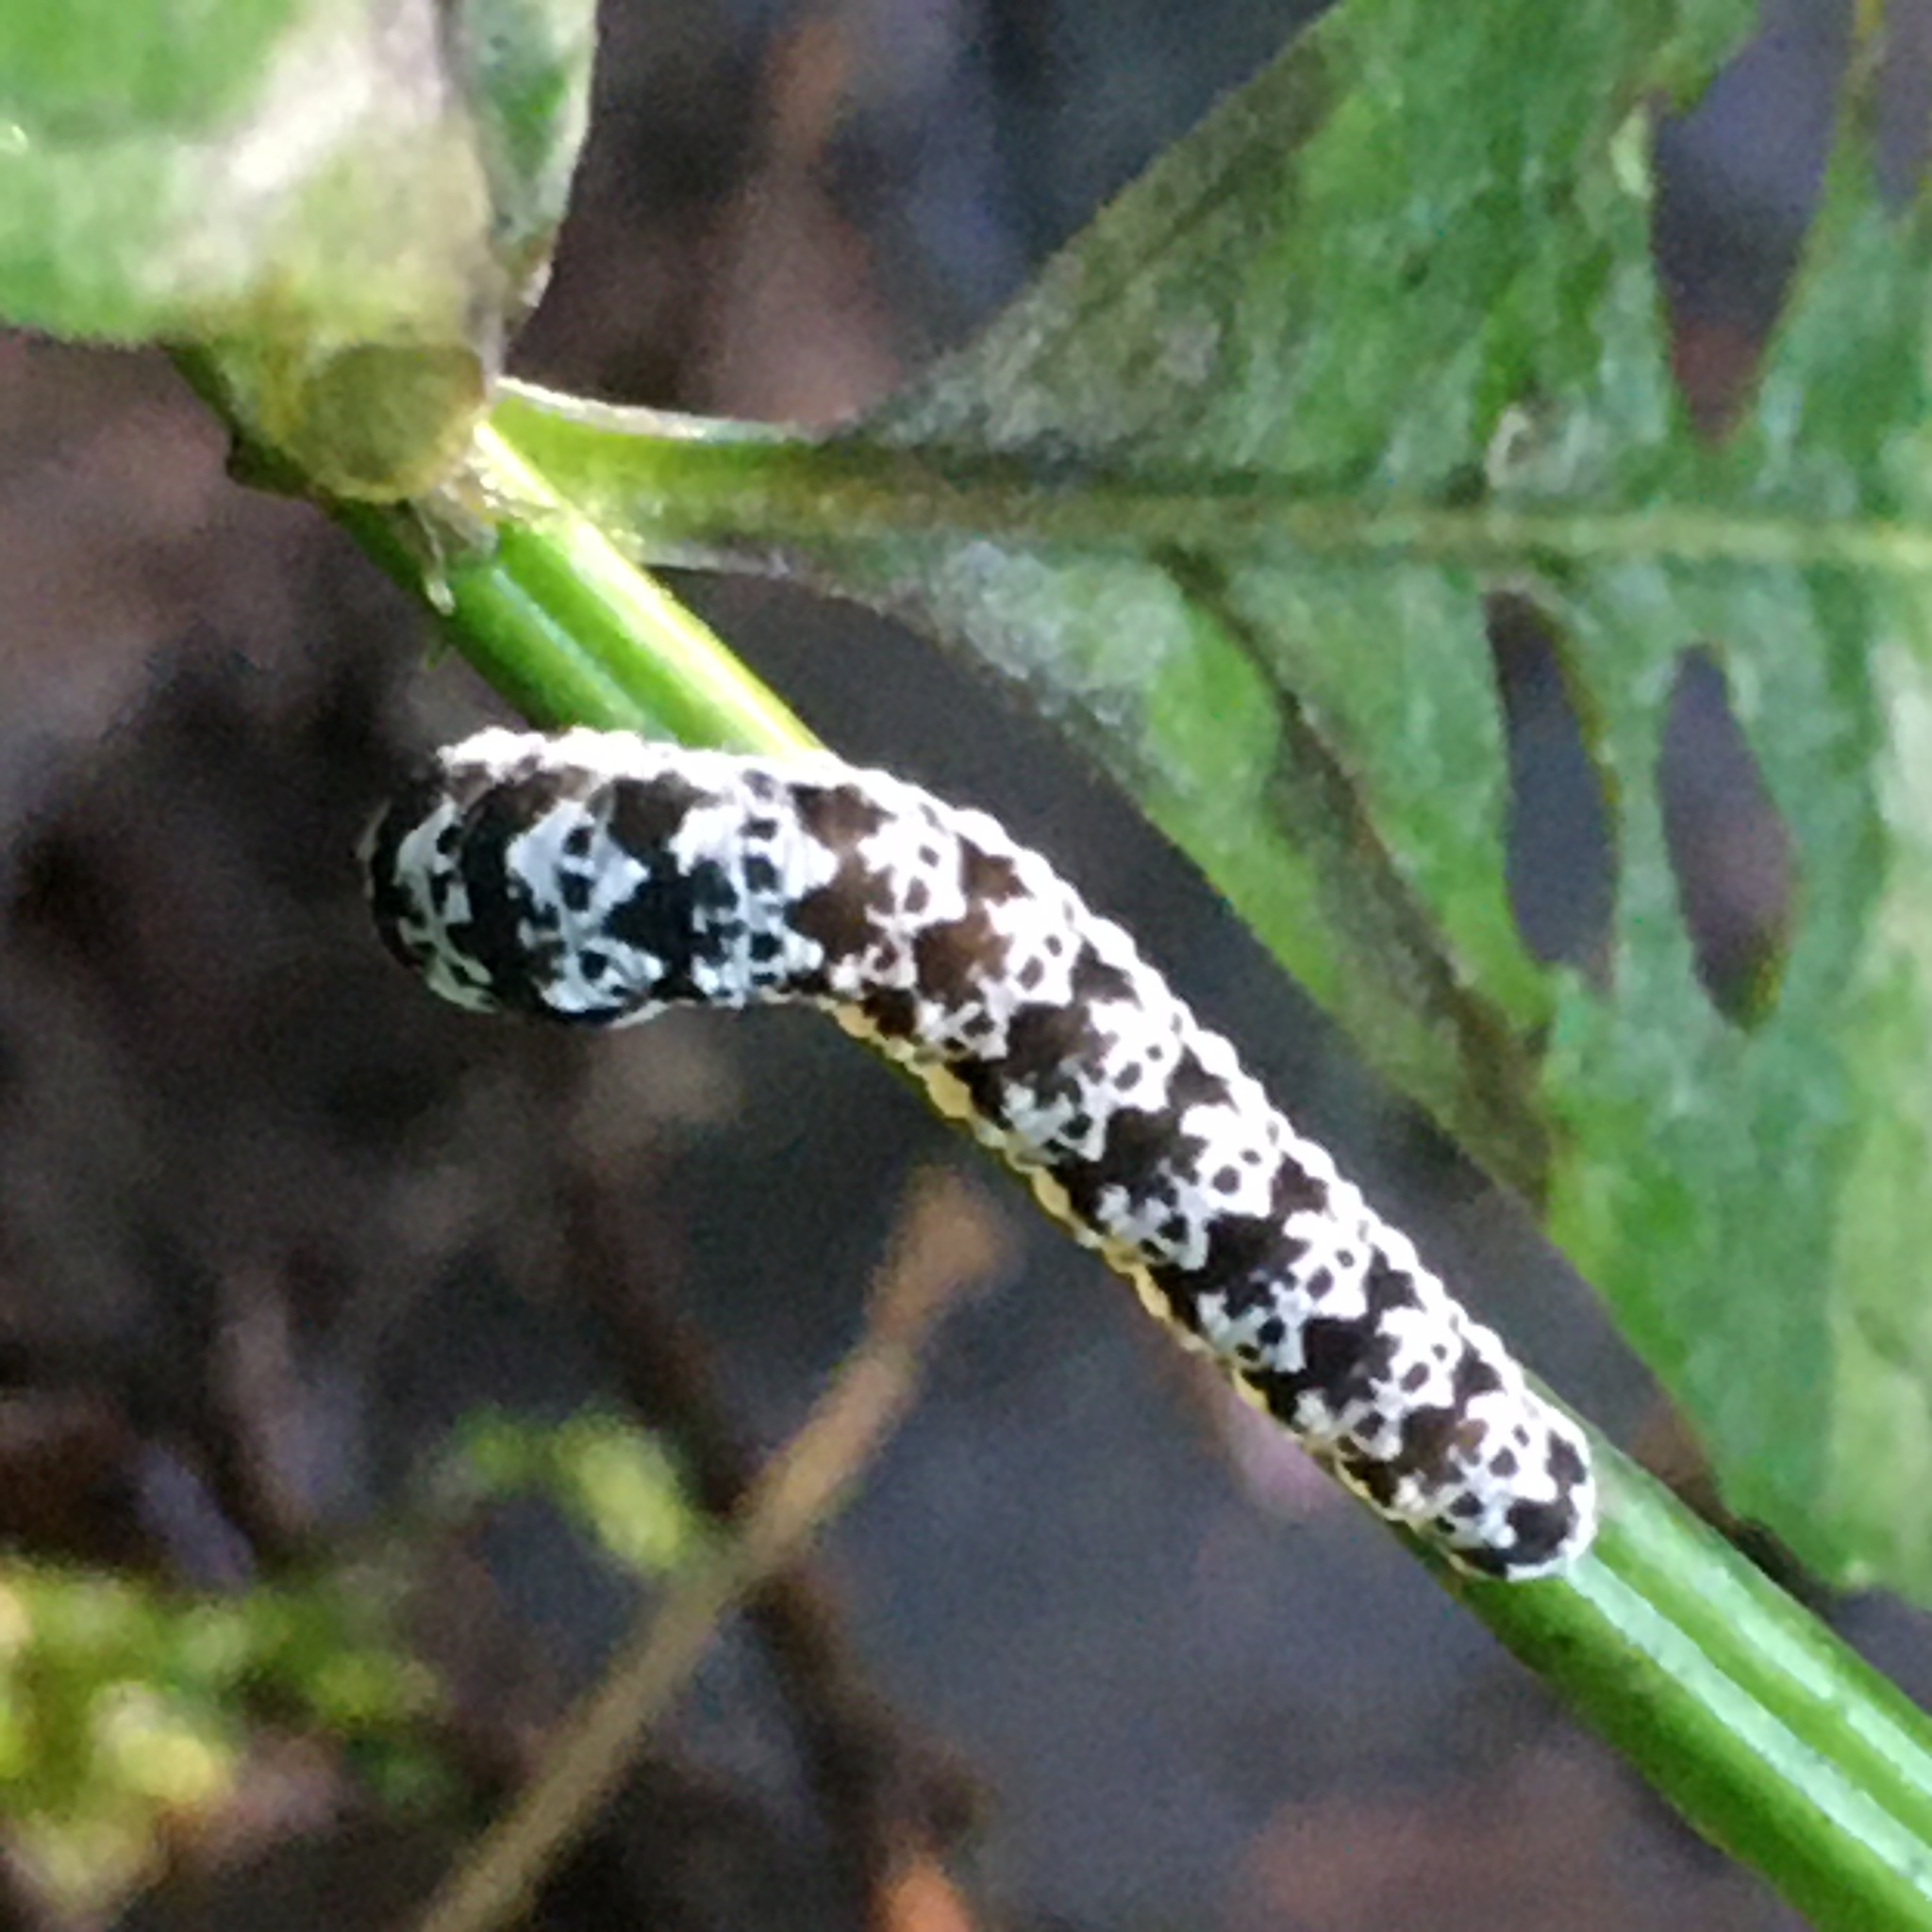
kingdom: Animalia
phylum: Arthropoda
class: Insecta
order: Hymenoptera
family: Tenthredinidae
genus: Tenthredo
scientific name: Tenthredo
